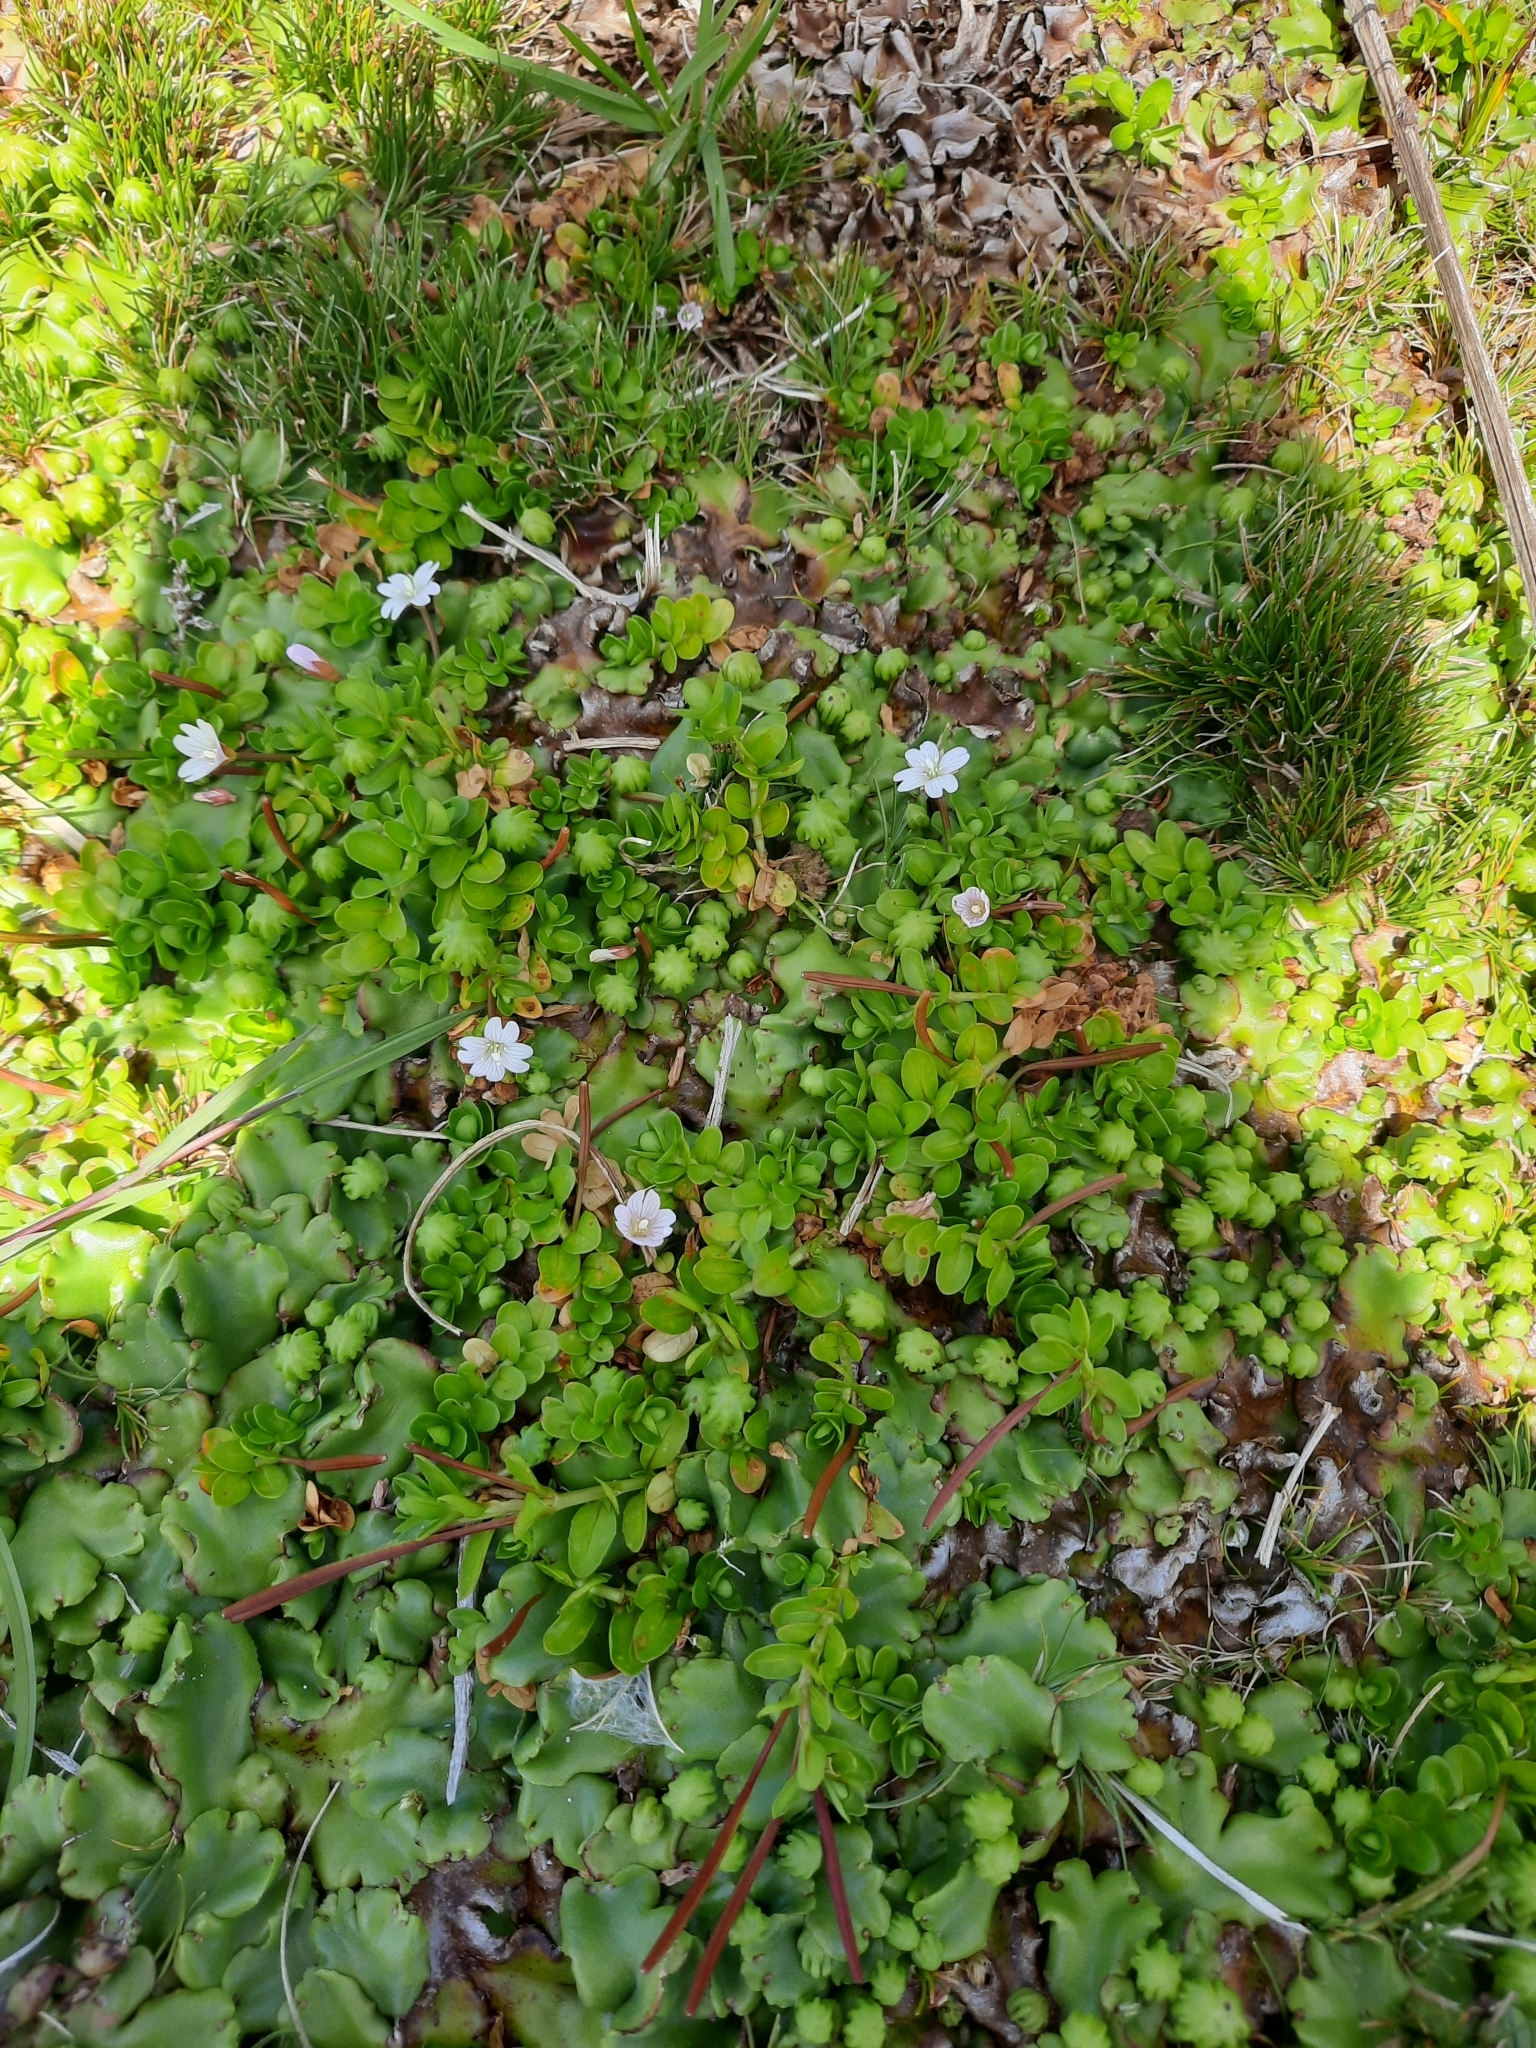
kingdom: Plantae
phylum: Tracheophyta
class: Magnoliopsida
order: Myrtales
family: Onagraceae
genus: Epilobium
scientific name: Epilobium confertifolium
